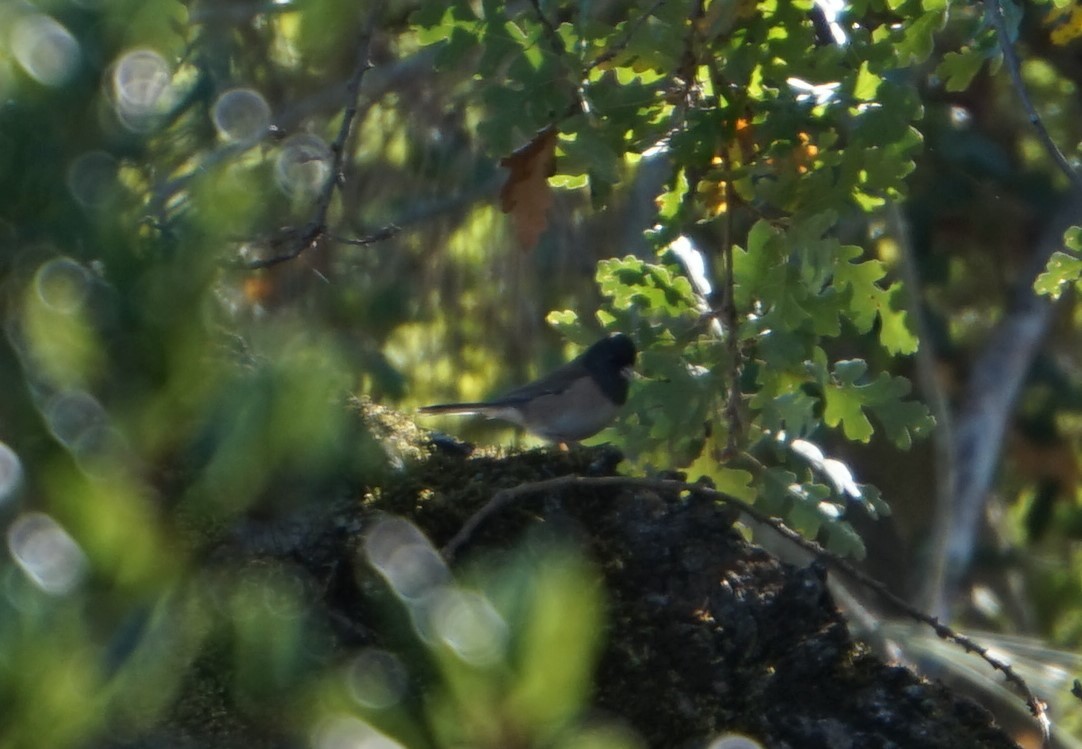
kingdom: Animalia
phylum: Chordata
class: Aves
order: Passeriformes
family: Passerellidae
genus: Junco
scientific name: Junco hyemalis
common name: Dark-eyed junco
